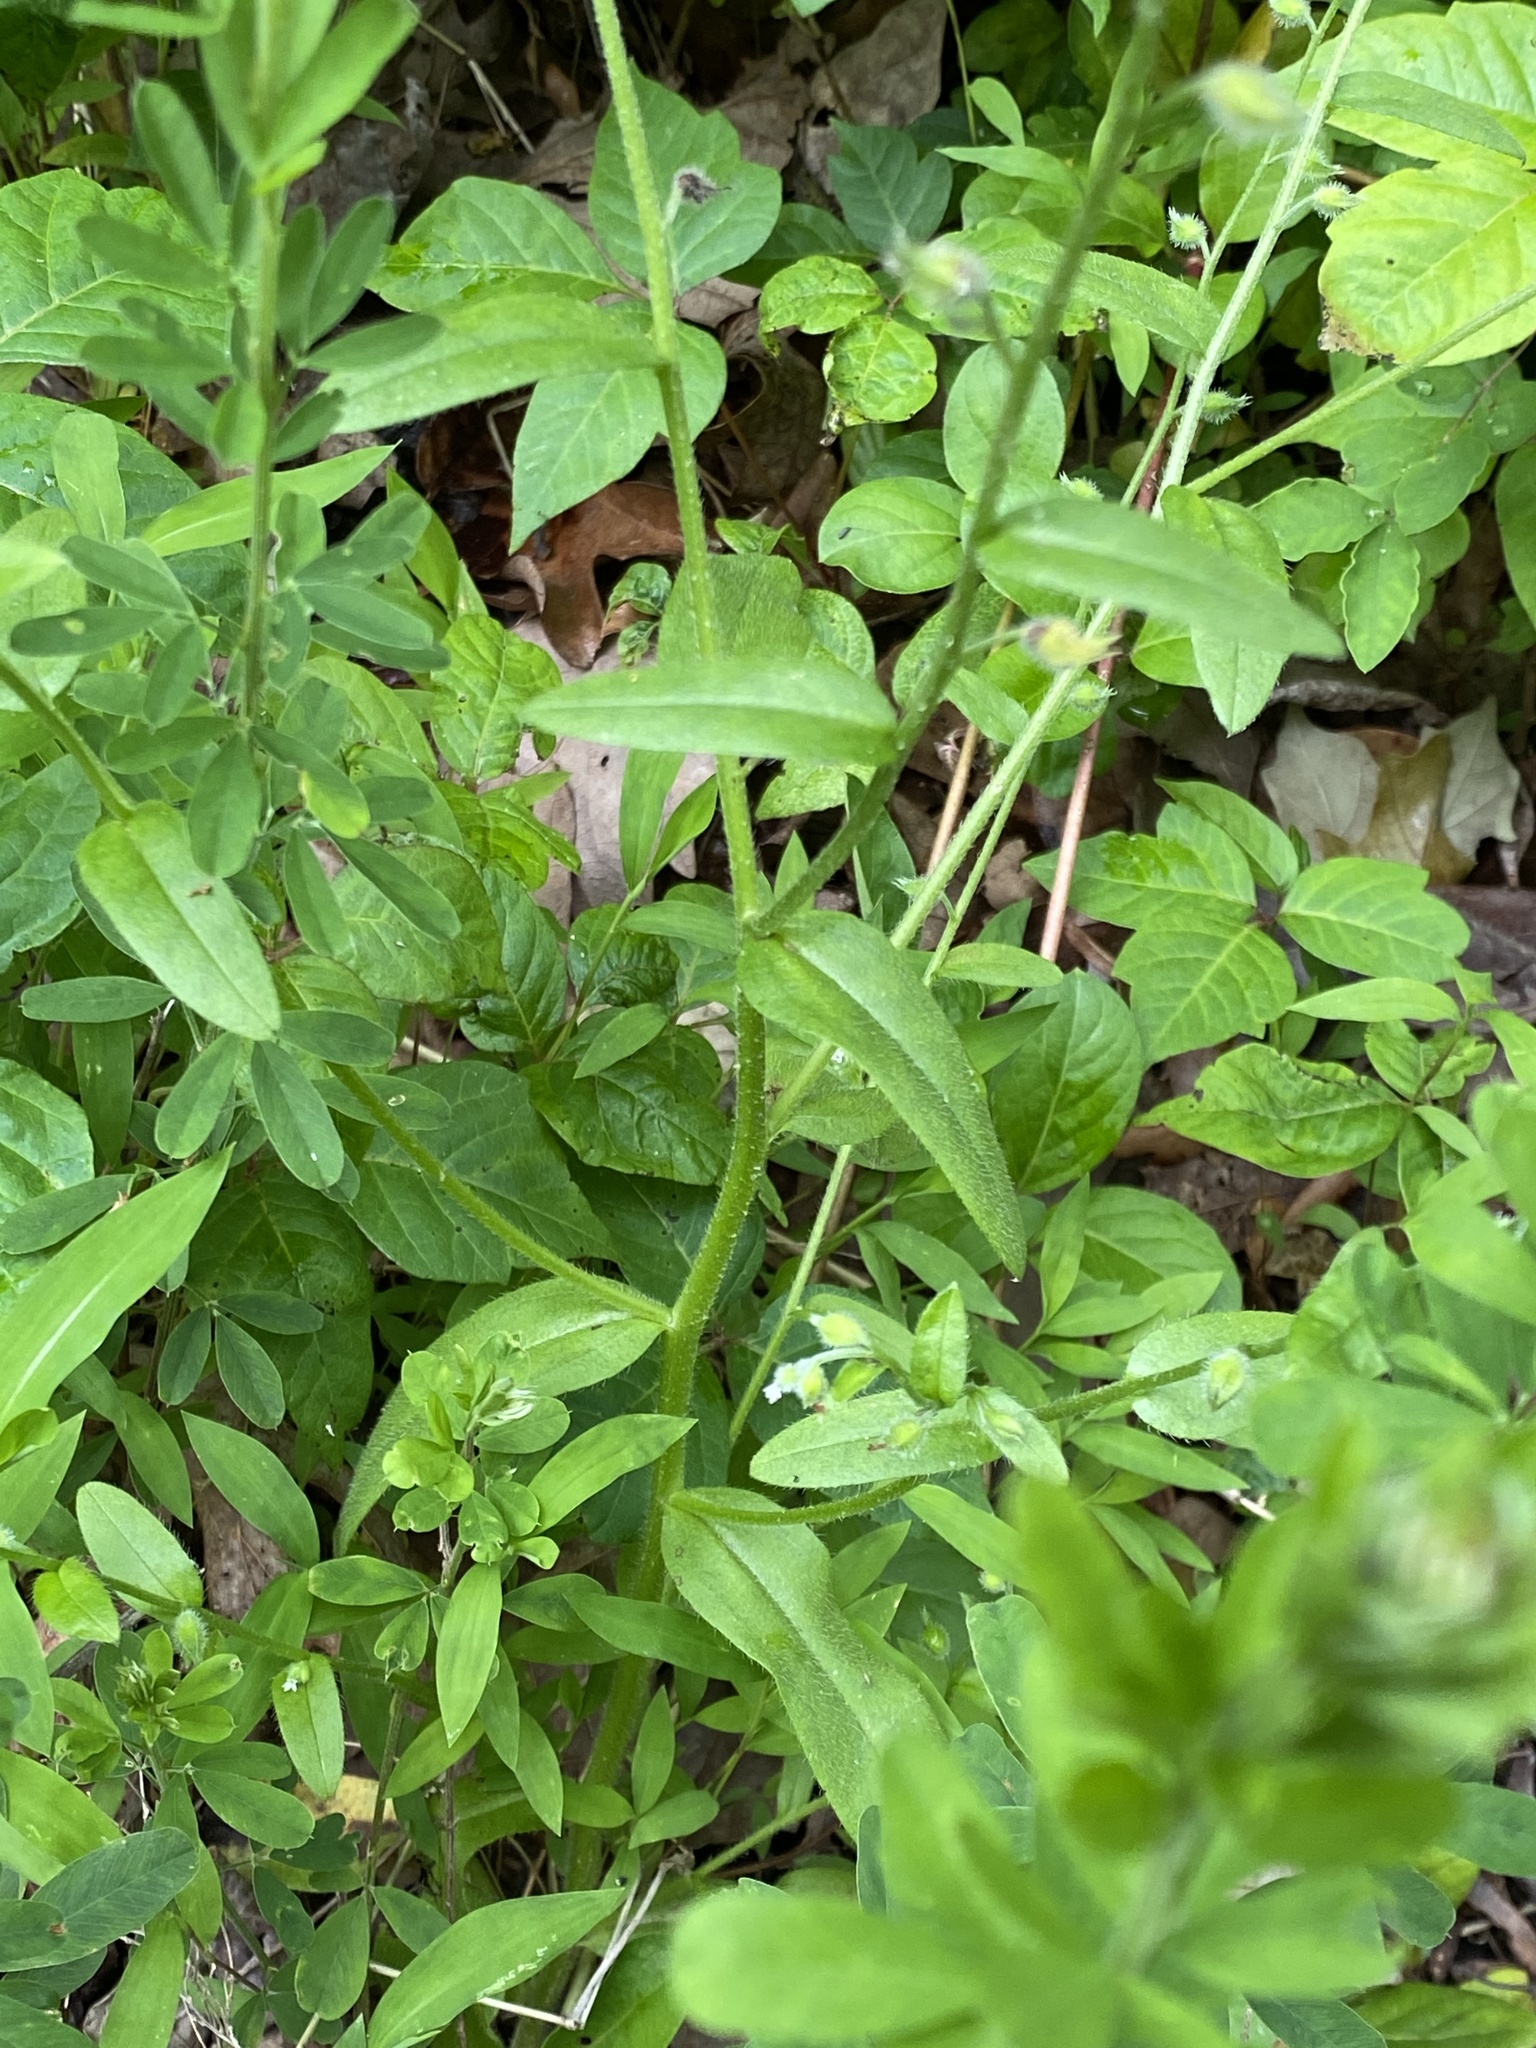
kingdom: Plantae
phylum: Tracheophyta
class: Magnoliopsida
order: Boraginales
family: Boraginaceae
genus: Myosotis
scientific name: Myosotis macrosperma
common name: Large-seed forget-me-not
